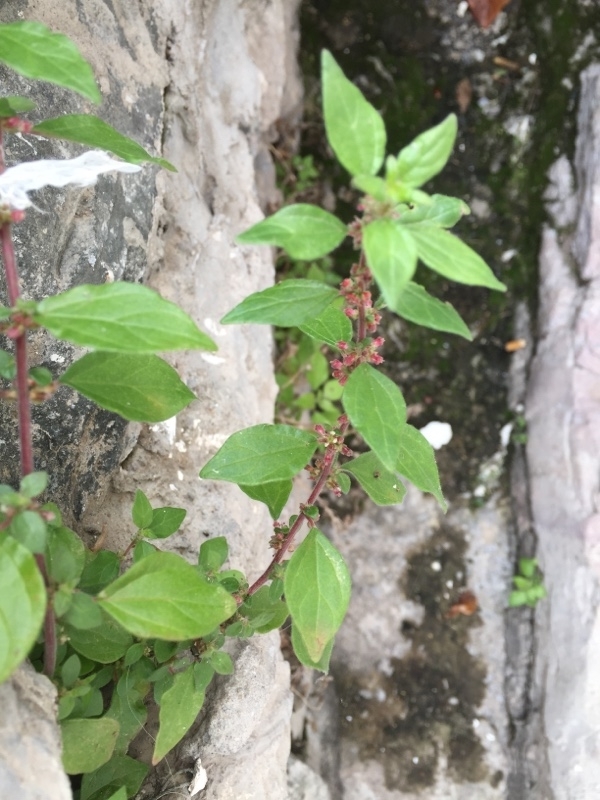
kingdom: Plantae
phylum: Tracheophyta
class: Magnoliopsida
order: Rosales
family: Urticaceae
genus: Parietaria
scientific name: Parietaria judaica
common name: Pellitory-of-the-wall
